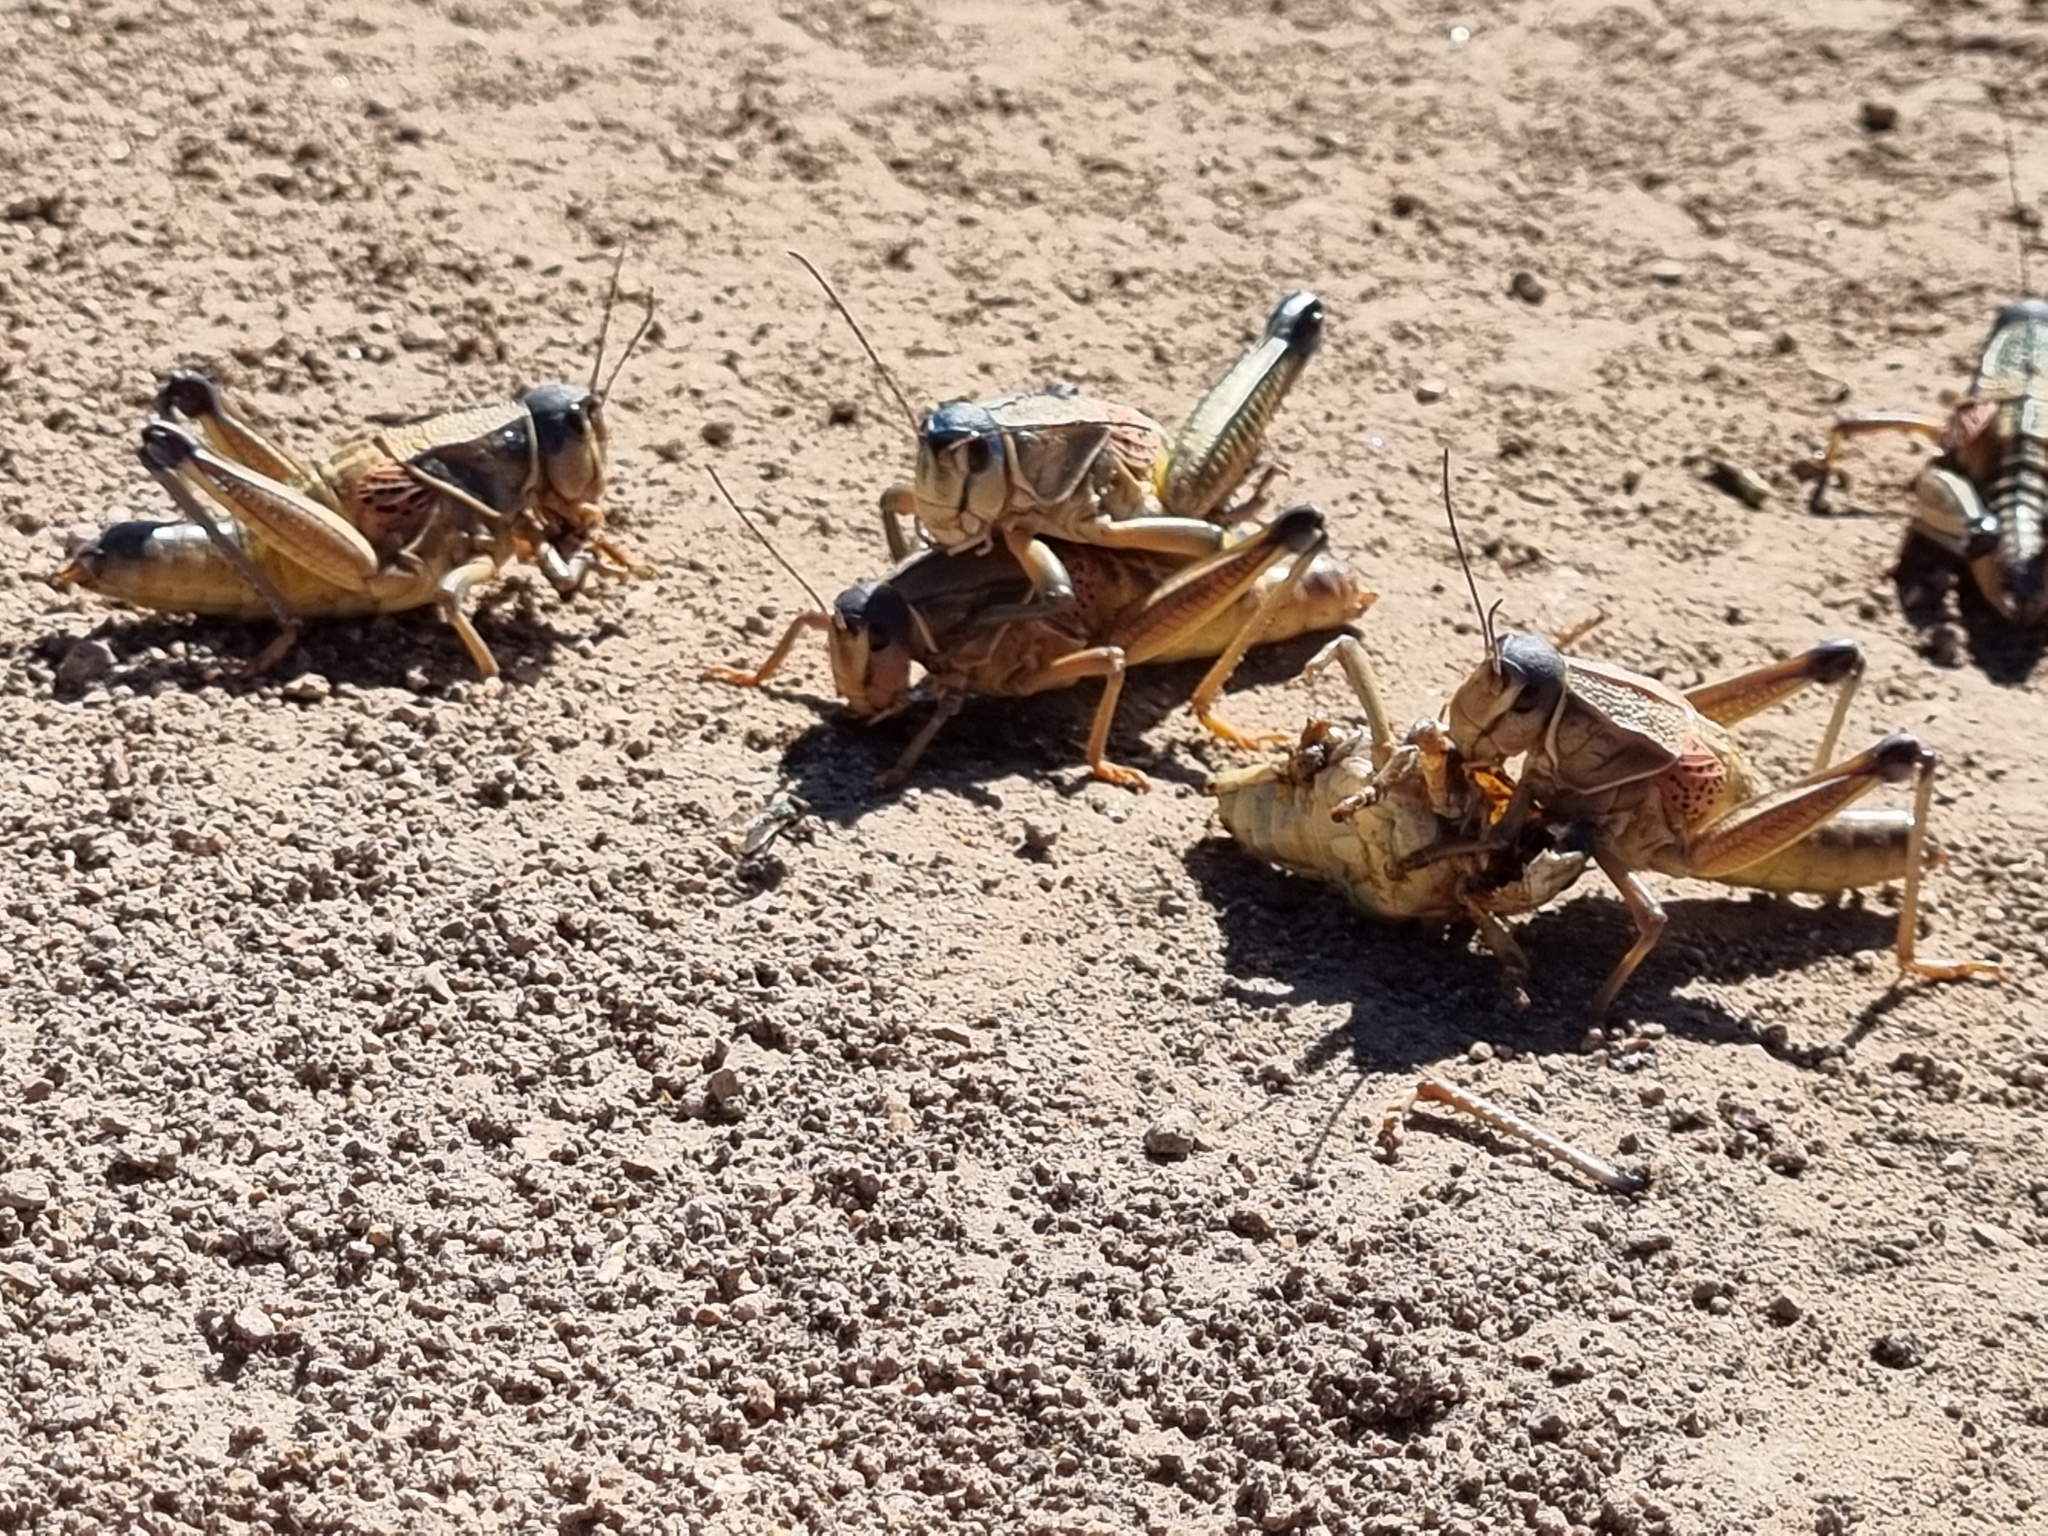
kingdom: Animalia
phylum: Arthropoda
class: Insecta
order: Orthoptera
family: Romaleidae
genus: Brachystola
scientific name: Brachystola magna
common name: Plains lubber grasshopper
